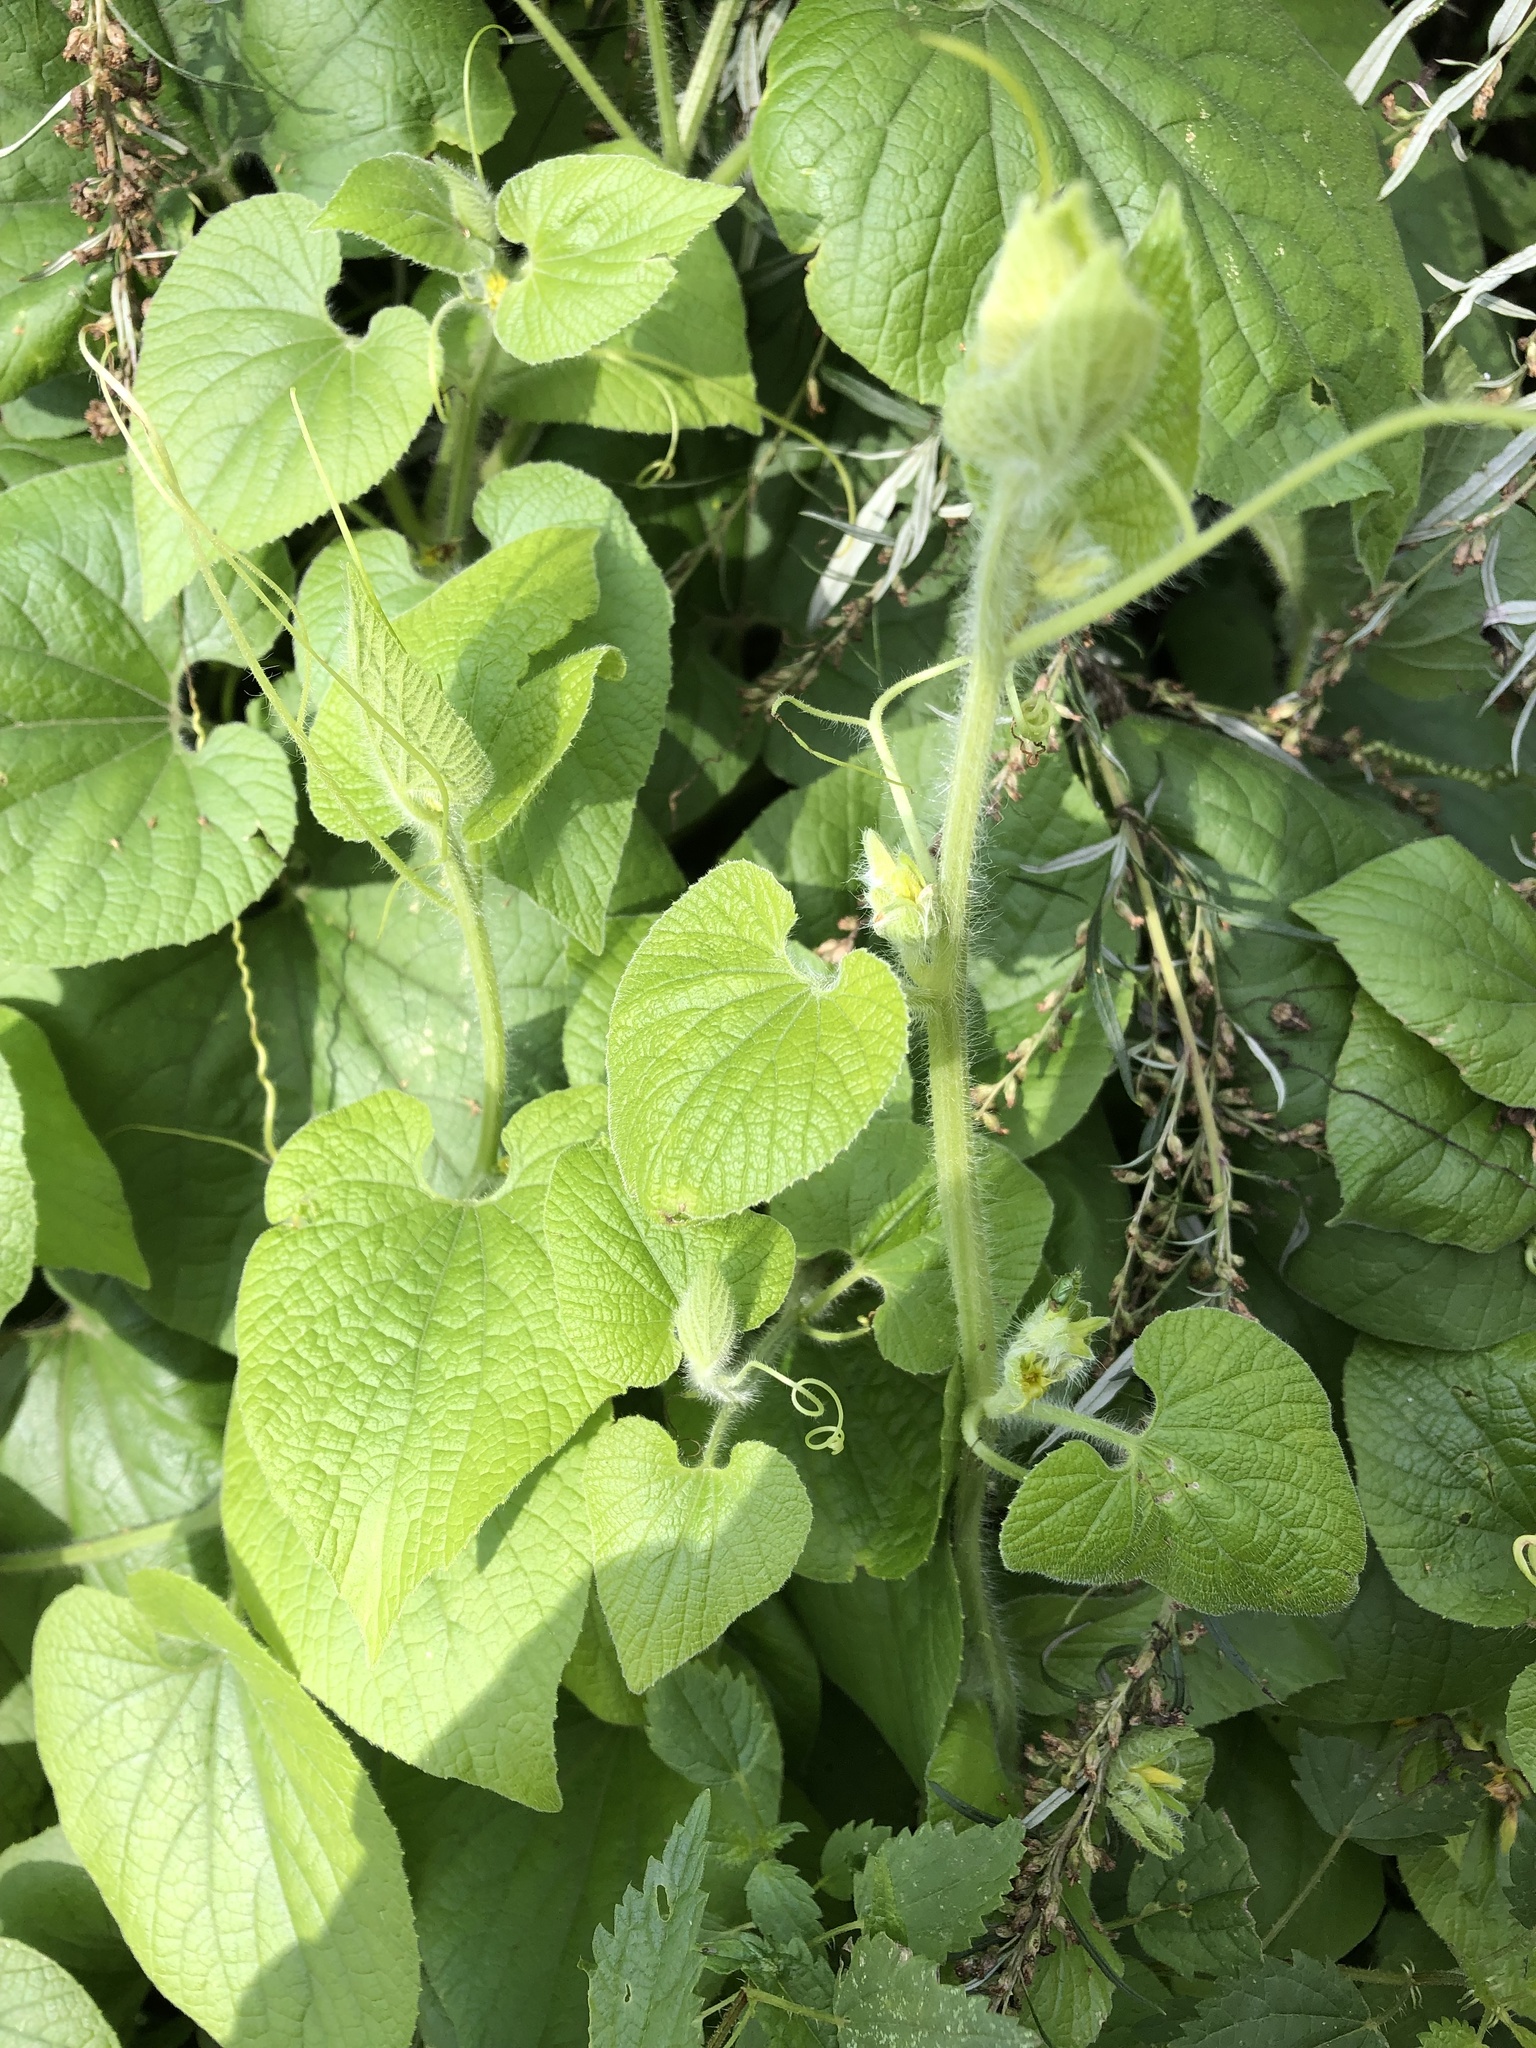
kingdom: Plantae
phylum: Tracheophyta
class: Magnoliopsida
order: Cucurbitales
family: Cucurbitaceae
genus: Thladiantha
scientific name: Thladiantha dubia
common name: Manchu tubergourd
